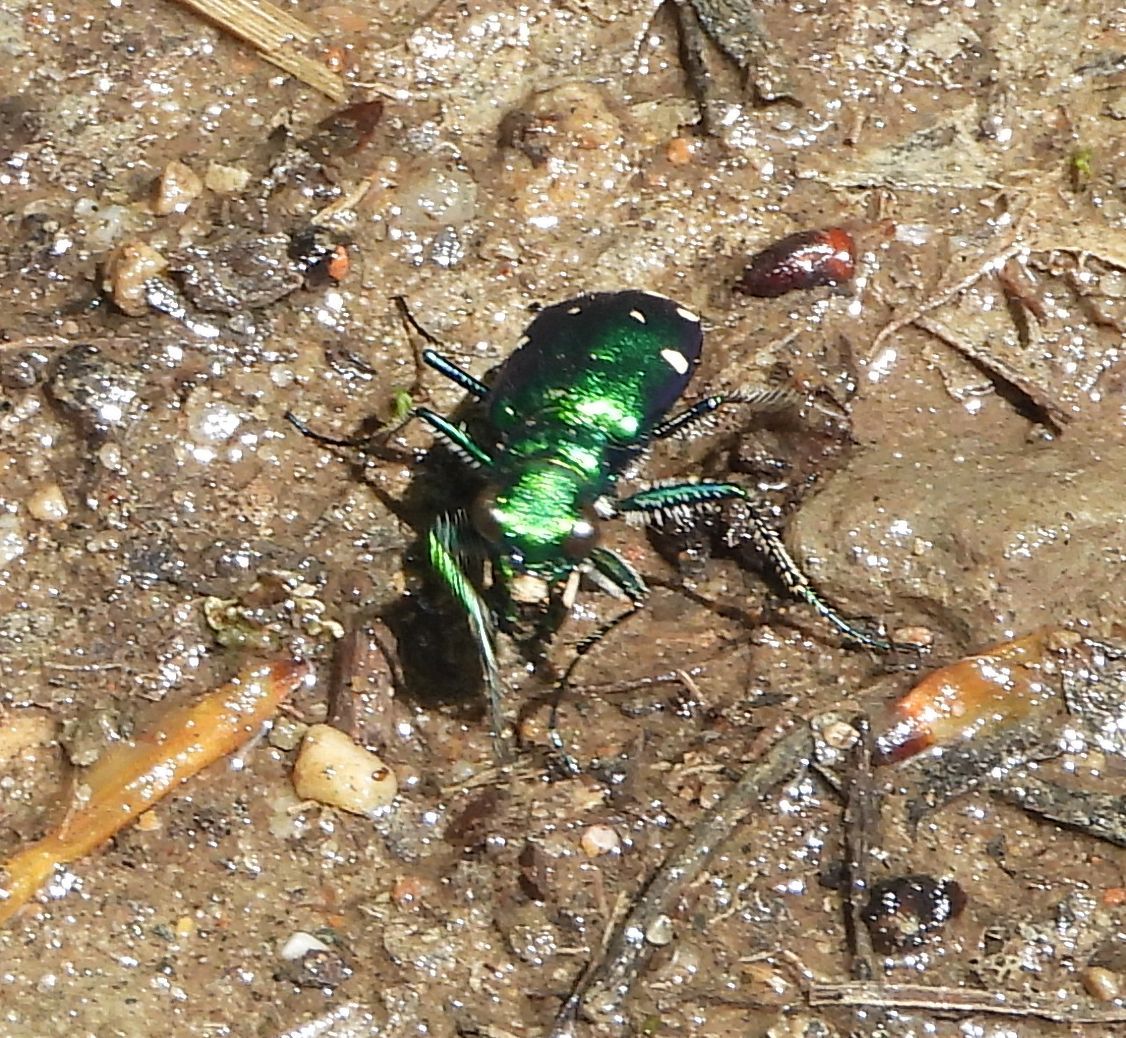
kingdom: Animalia
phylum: Arthropoda
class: Insecta
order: Coleoptera
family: Carabidae
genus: Cicindela
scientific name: Cicindela sexguttata
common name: Six-spotted tiger beetle
